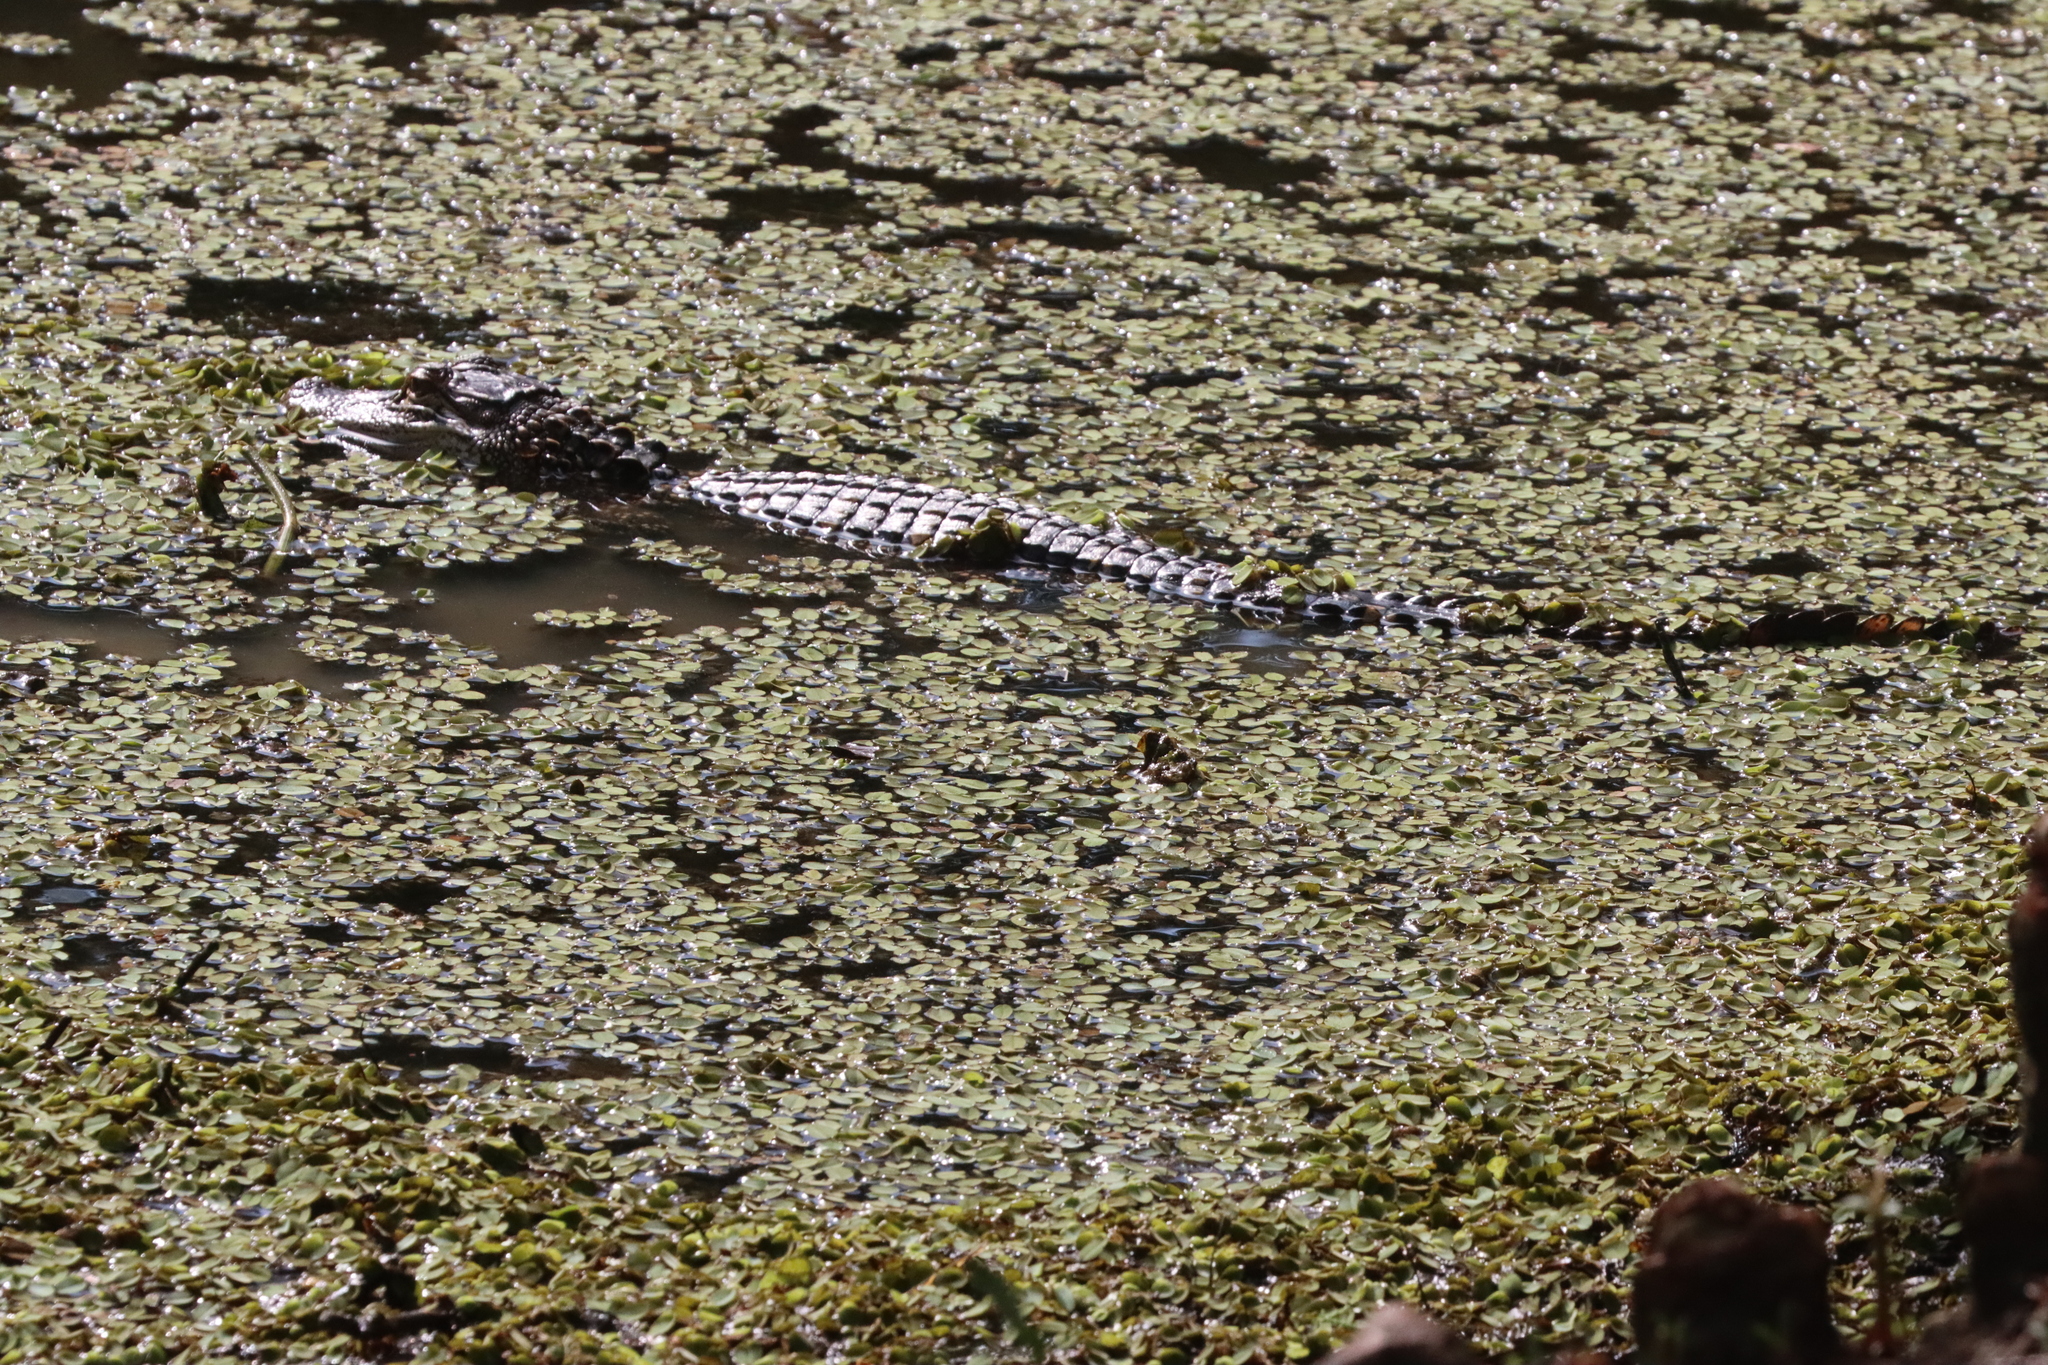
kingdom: Animalia
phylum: Chordata
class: Crocodylia
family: Alligatoridae
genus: Alligator
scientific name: Alligator mississippiensis
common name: American alligator
